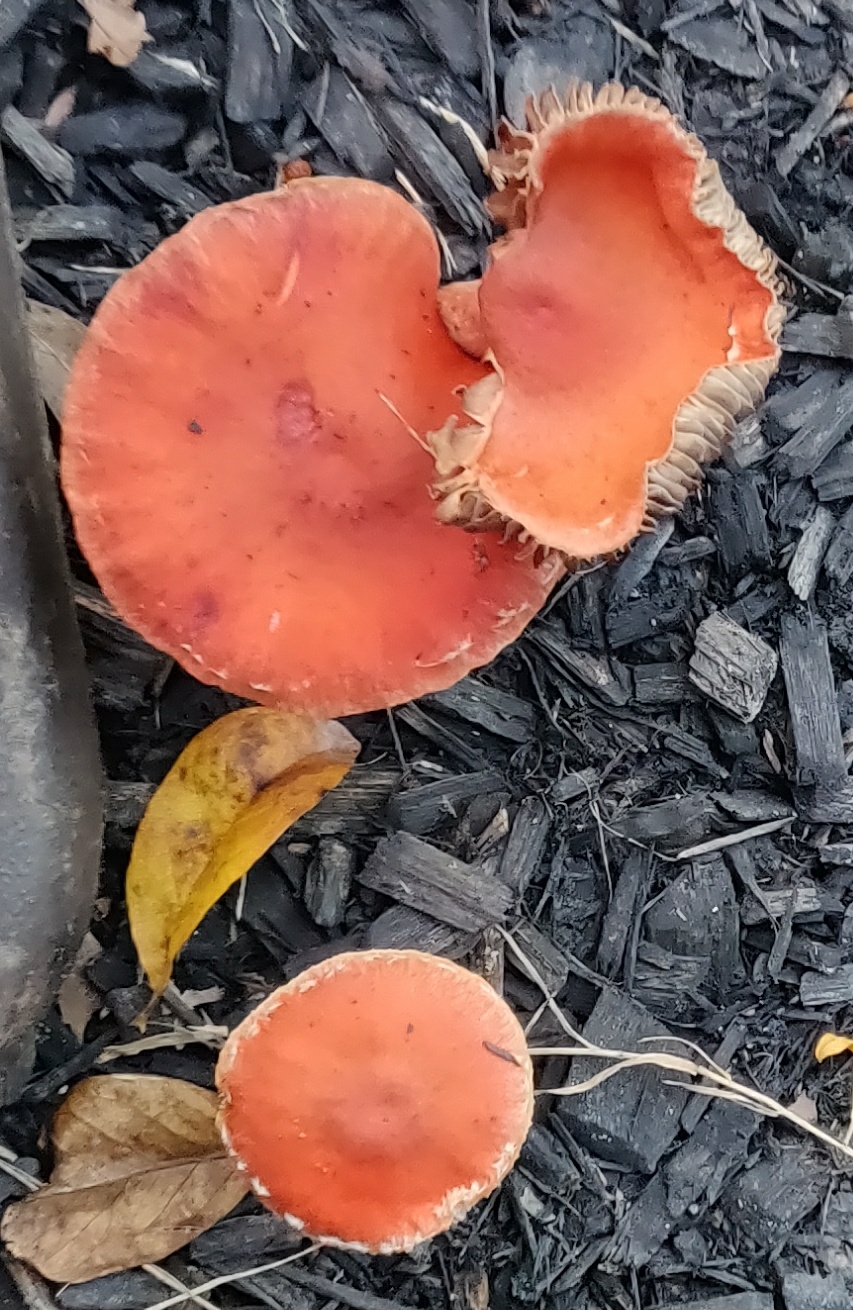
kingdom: Fungi
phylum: Basidiomycota
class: Agaricomycetes
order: Agaricales
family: Strophariaceae
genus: Leratiomyces
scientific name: Leratiomyces ceres
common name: Redlead roundhead
